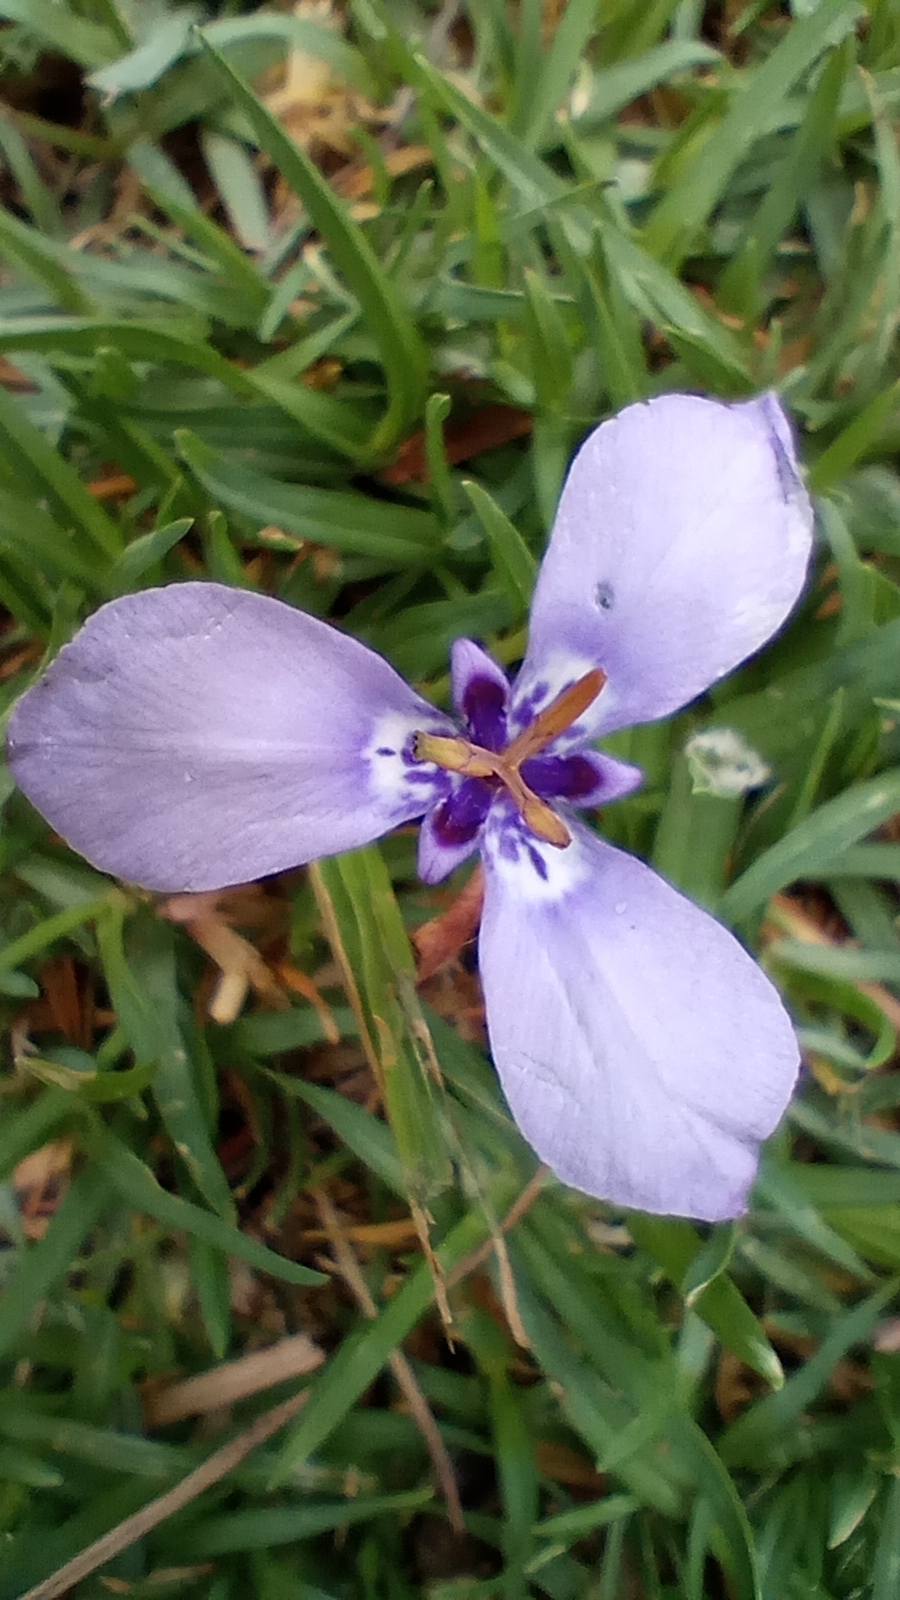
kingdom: Plantae
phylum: Tracheophyta
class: Liliopsida
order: Asparagales
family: Iridaceae
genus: Herbertia
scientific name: Herbertia lahue
